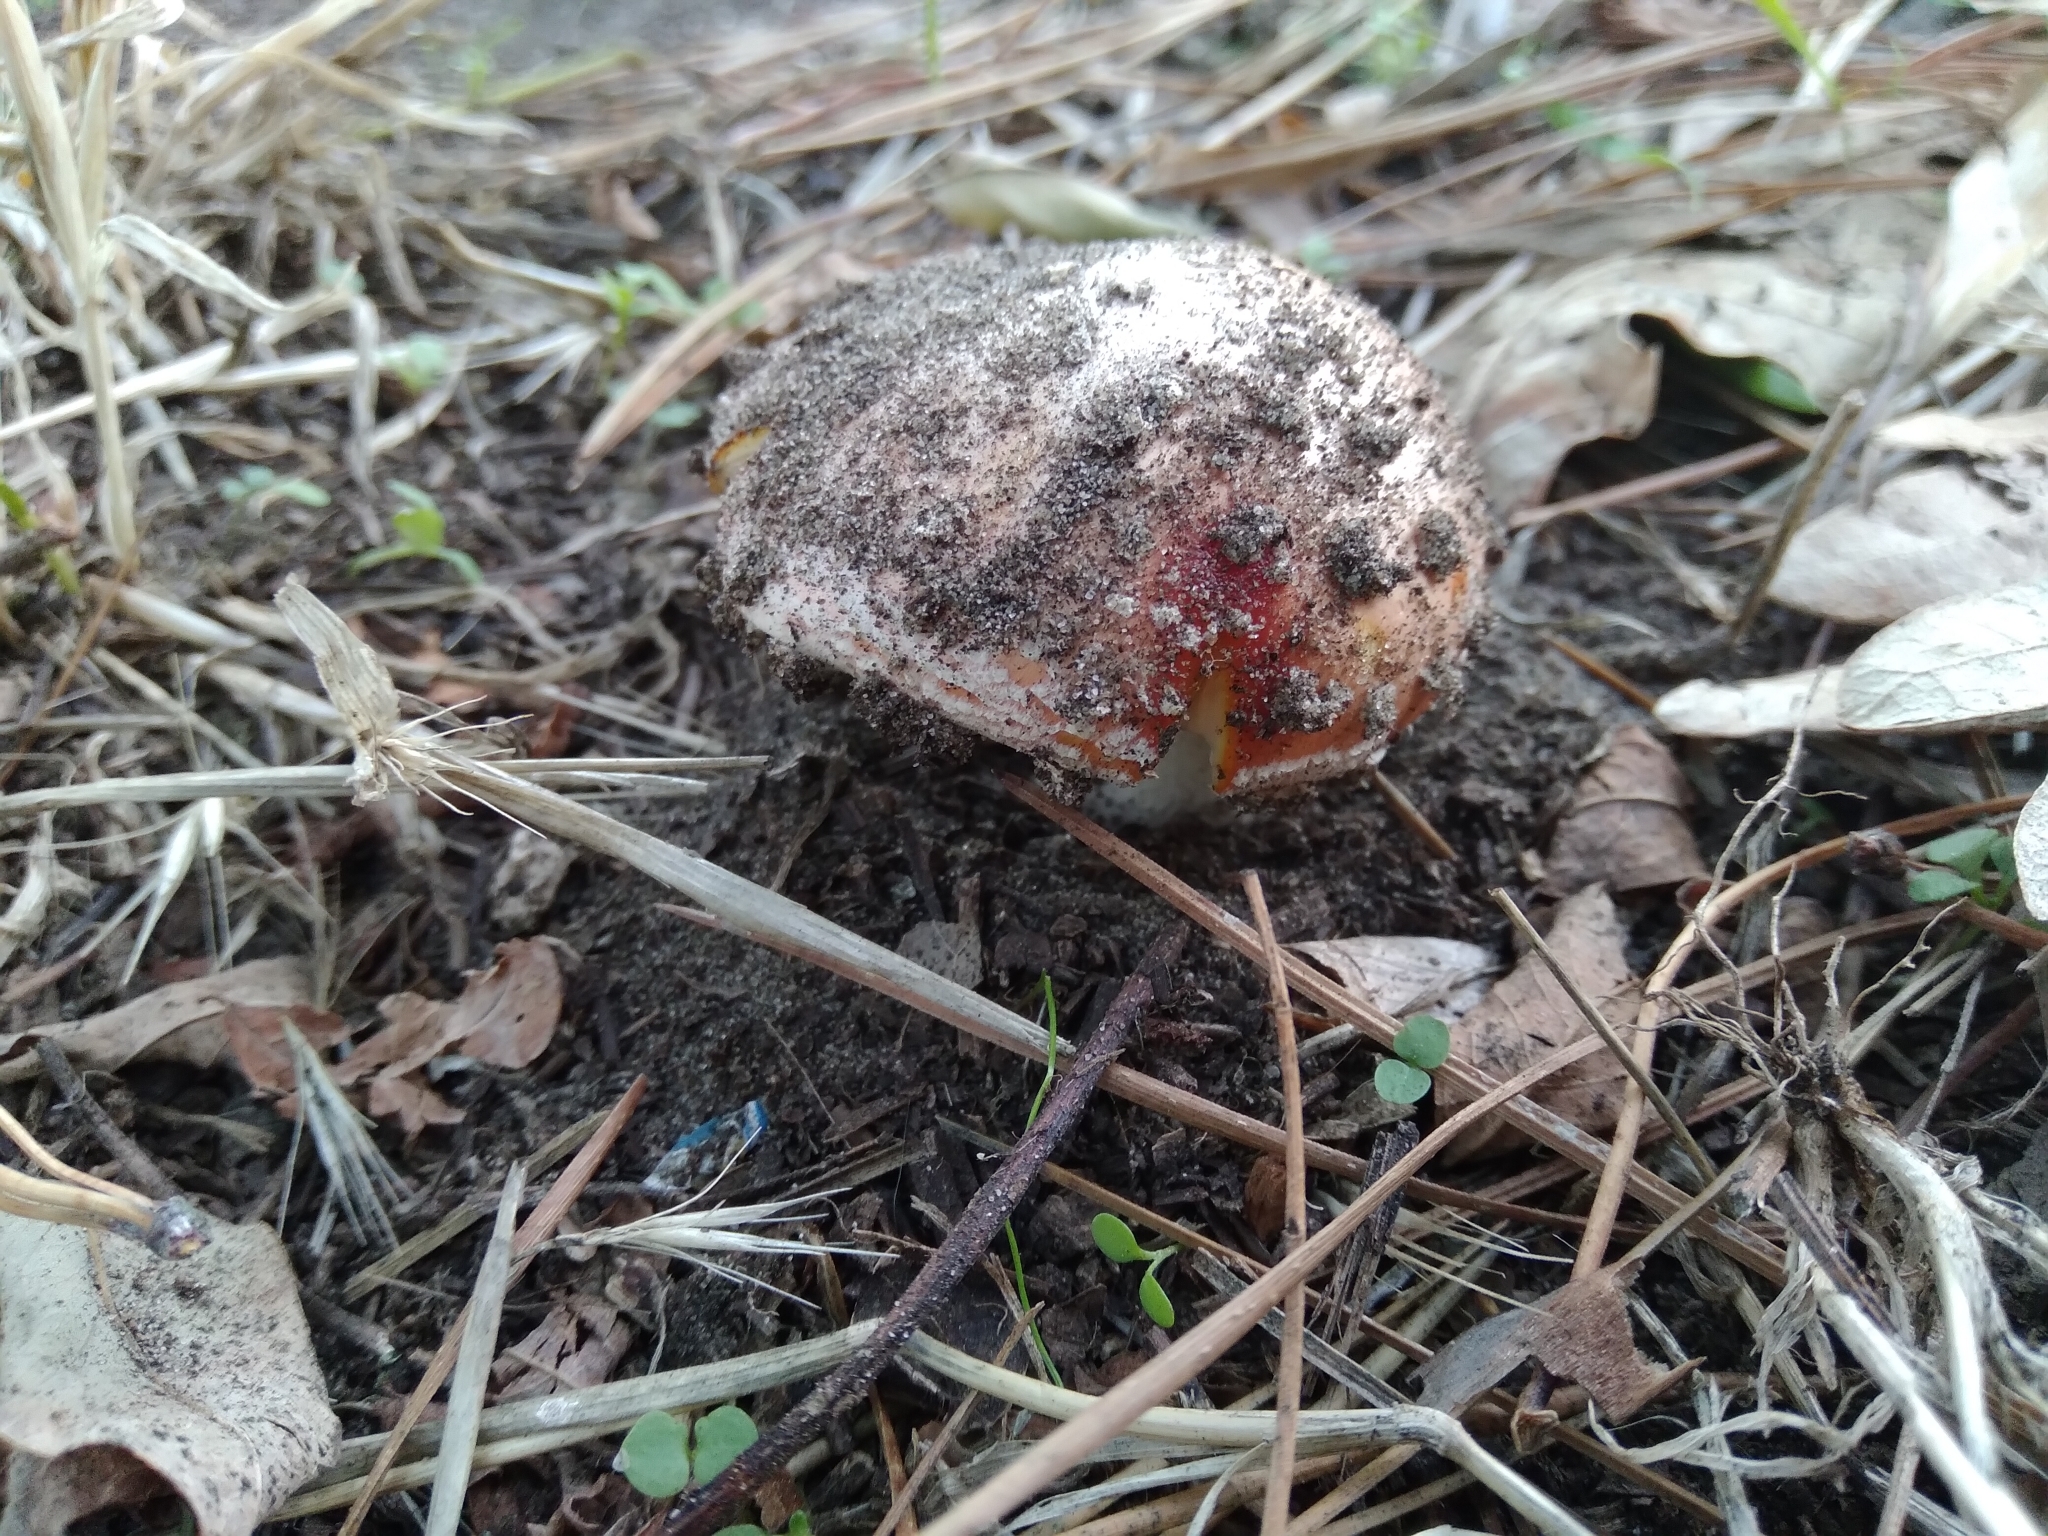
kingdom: Fungi
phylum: Basidiomycota
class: Agaricomycetes
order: Agaricales
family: Amanitaceae
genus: Amanita
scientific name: Amanita muscaria
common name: Fly agaric
